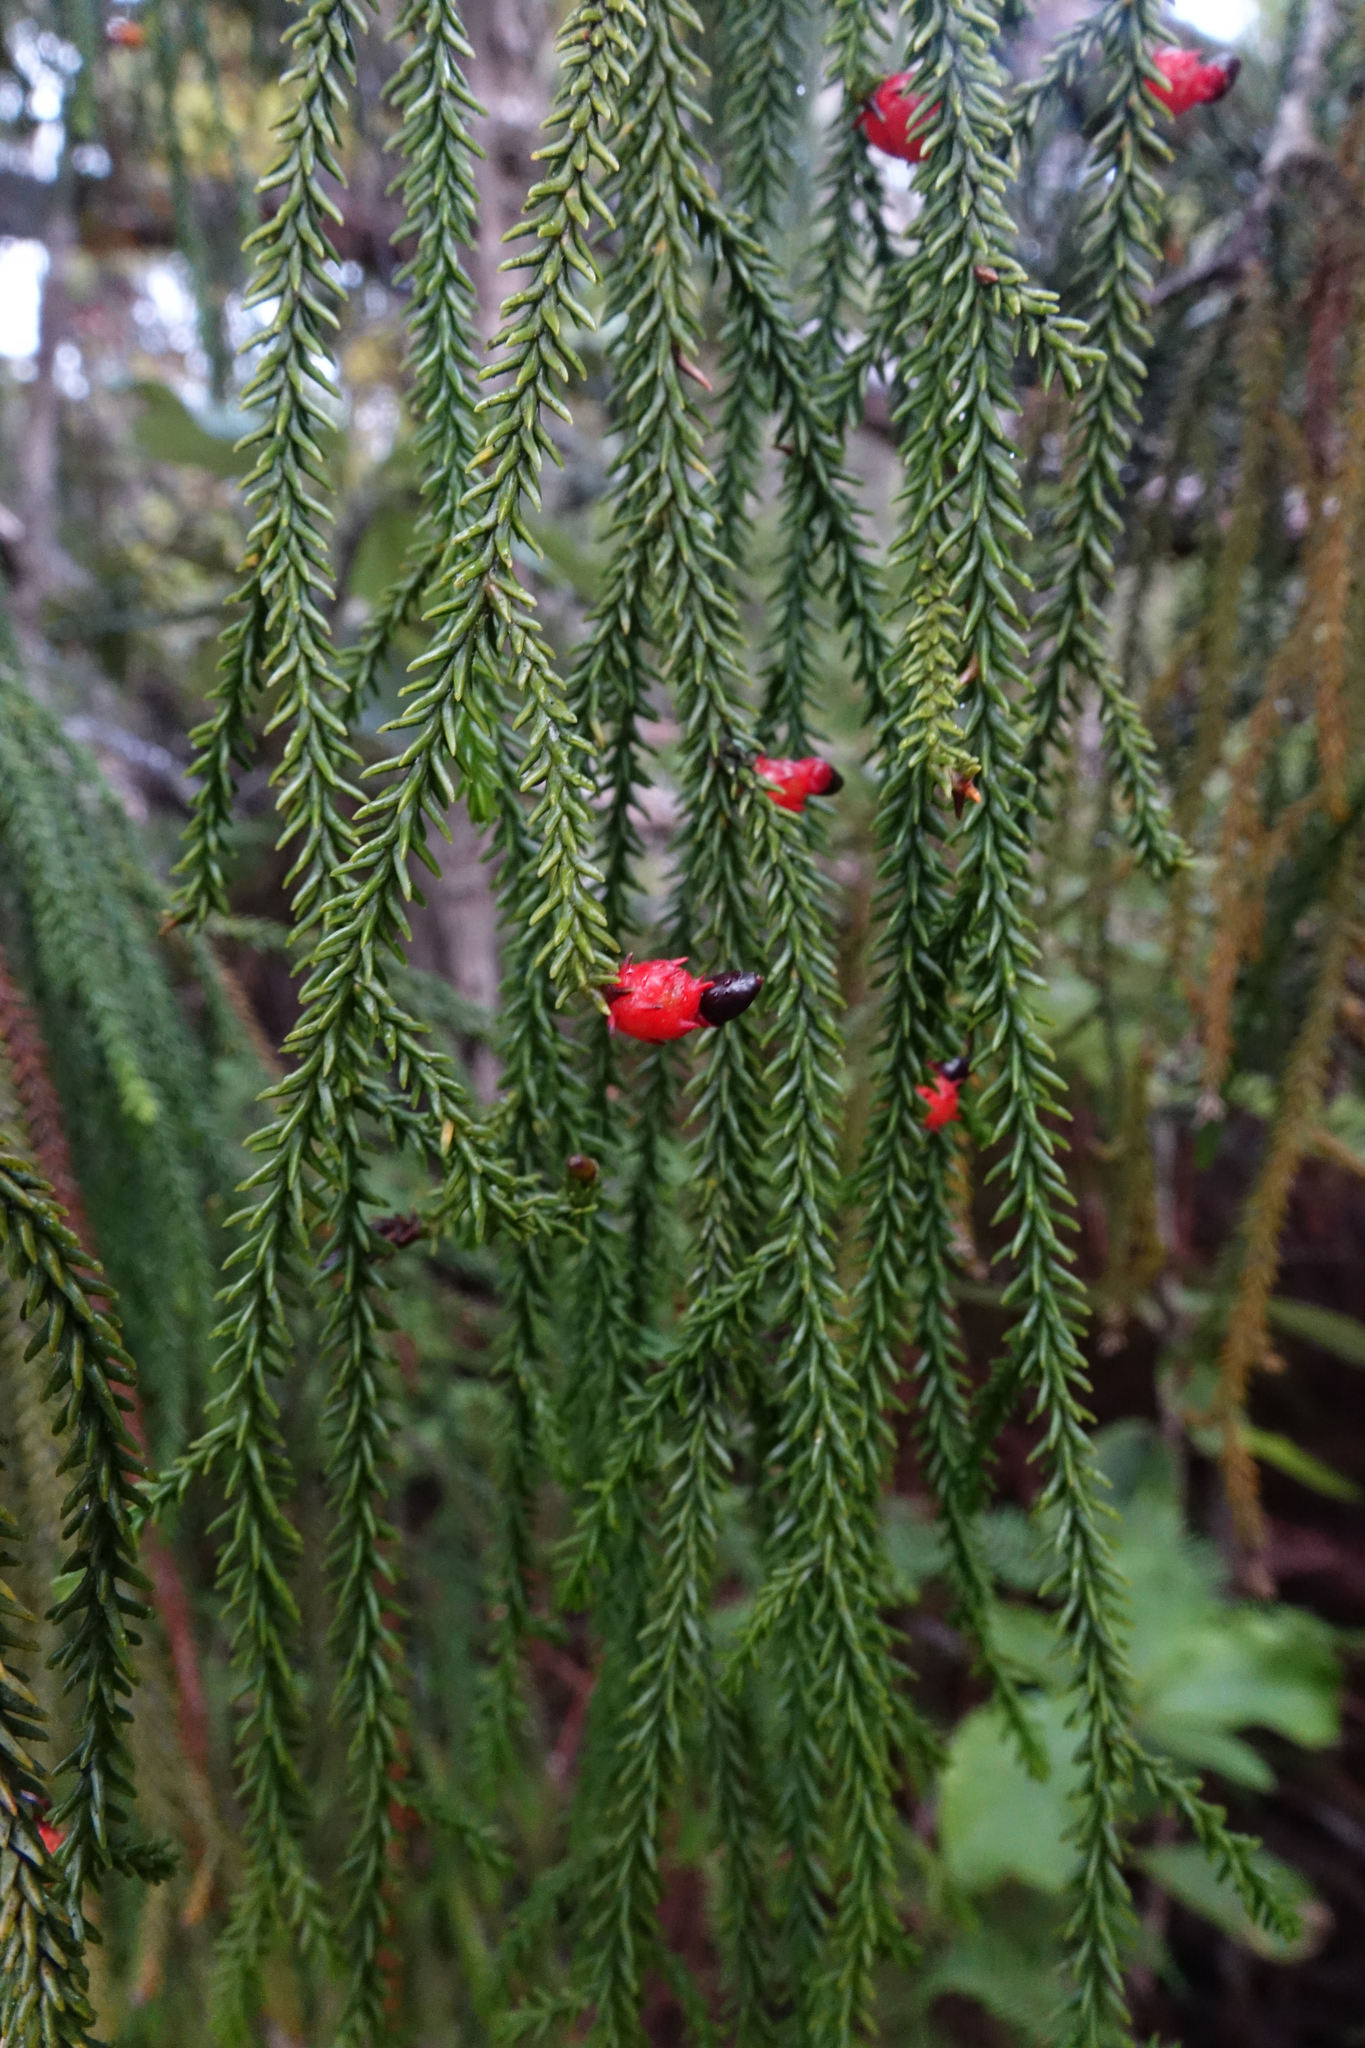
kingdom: Plantae
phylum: Tracheophyta
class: Pinopsida
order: Pinales
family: Podocarpaceae
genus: Dacrydium
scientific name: Dacrydium cupressinum
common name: Red pine
